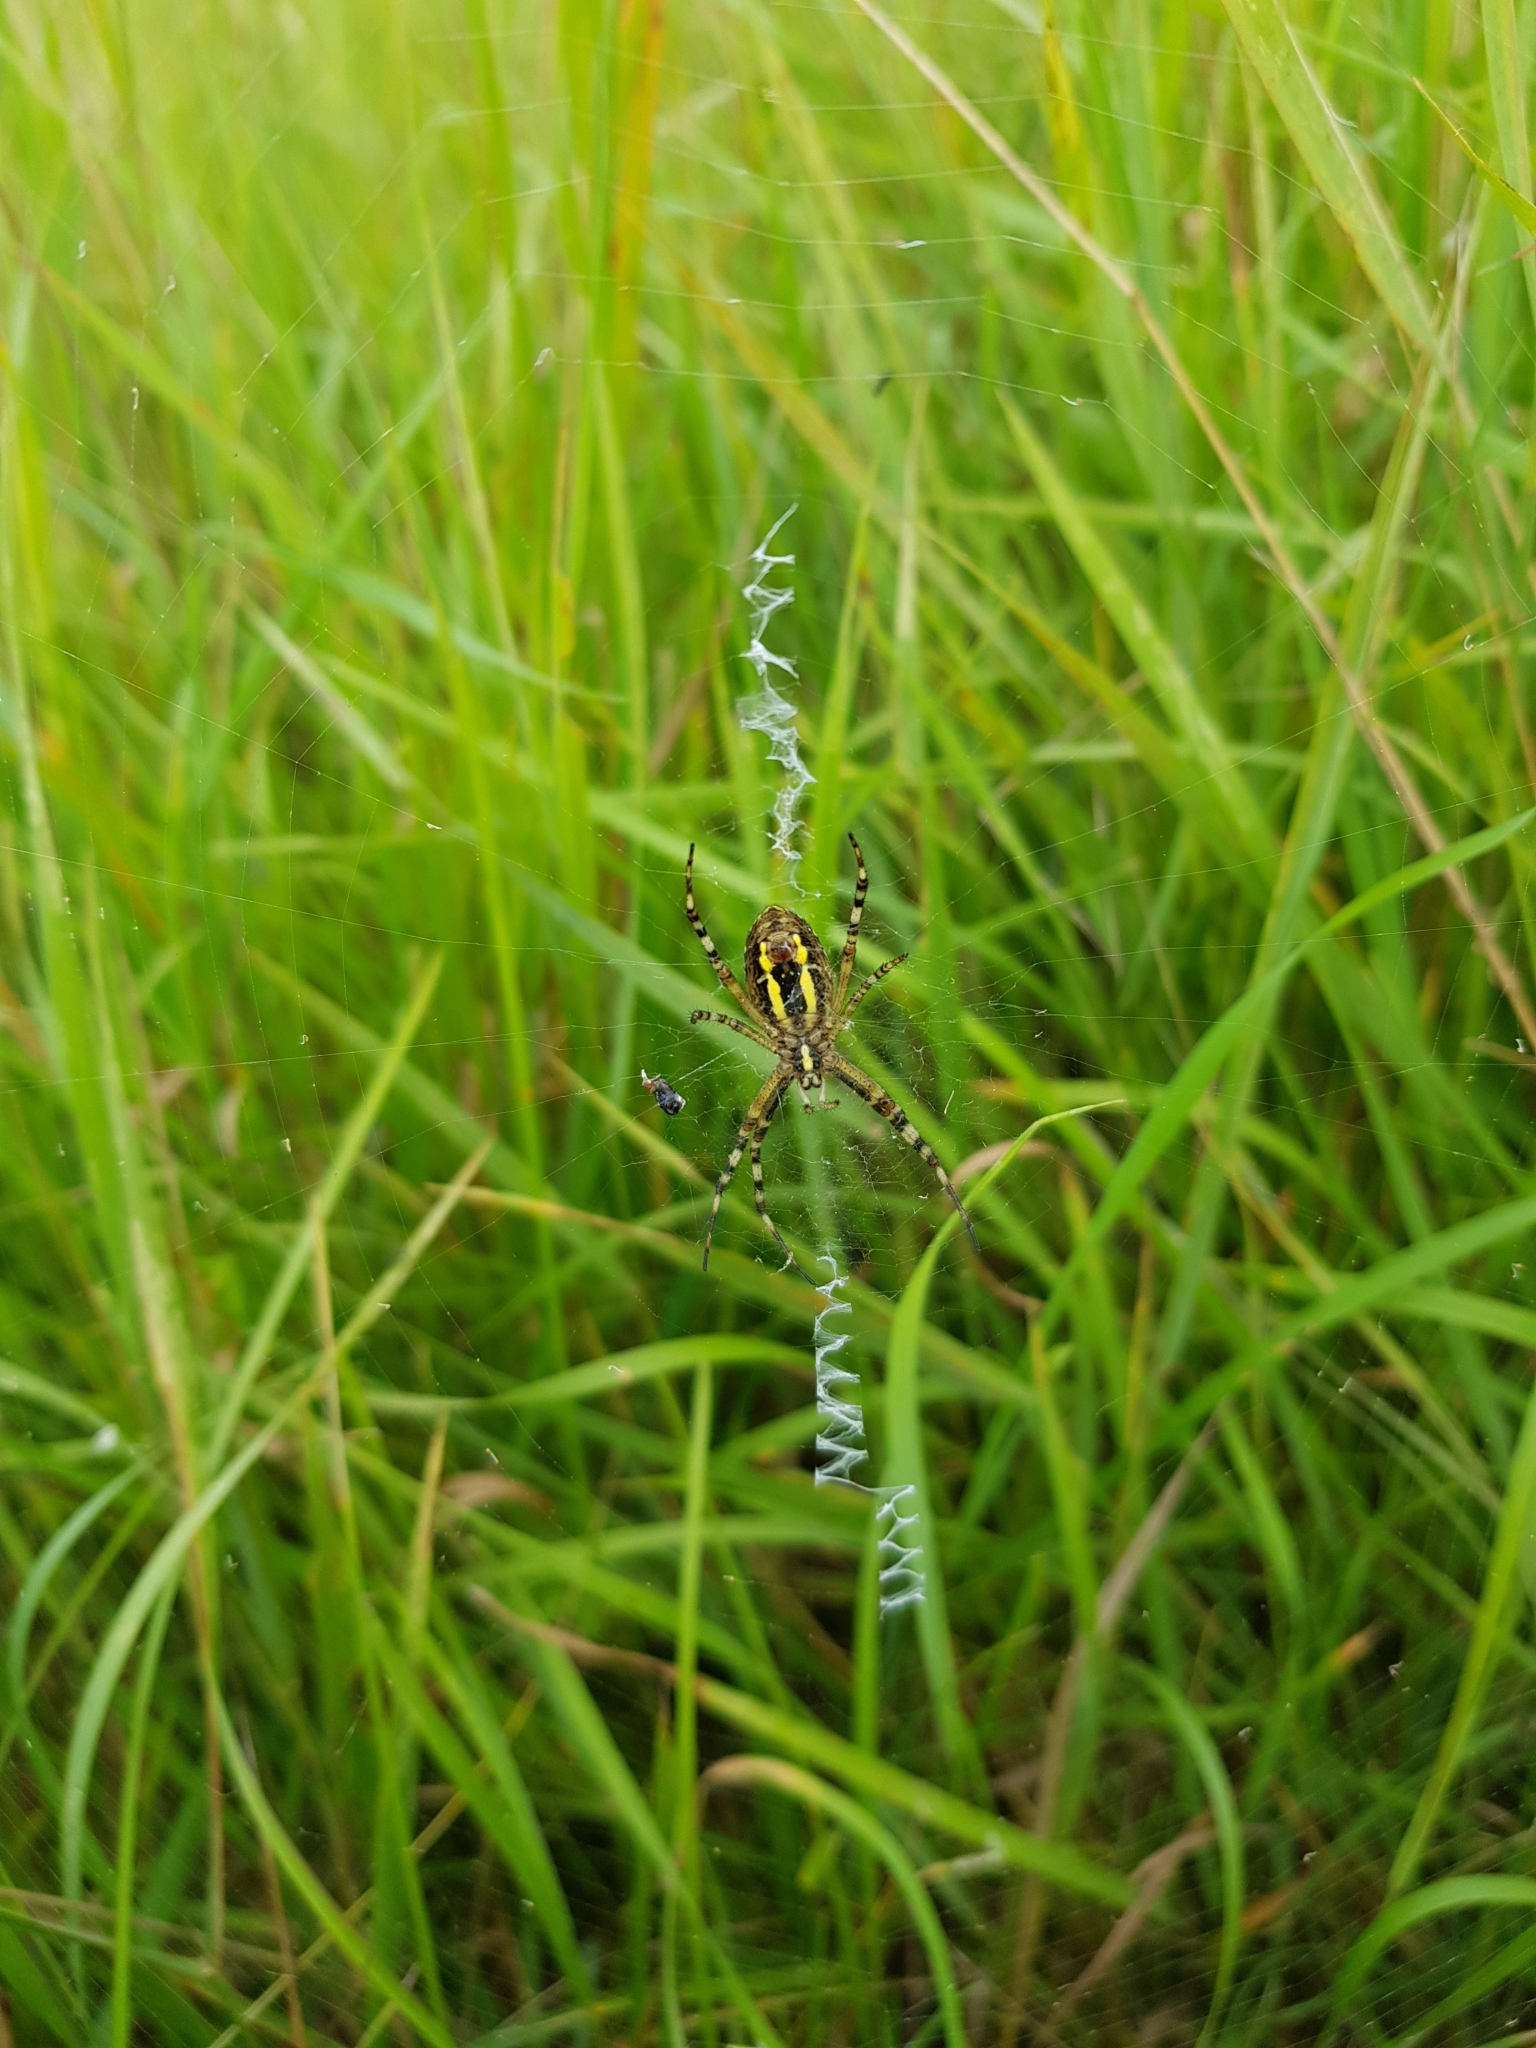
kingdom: Animalia
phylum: Arthropoda
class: Arachnida
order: Araneae
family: Araneidae
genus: Argiope
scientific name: Argiope bruennichi
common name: Wasp spider
